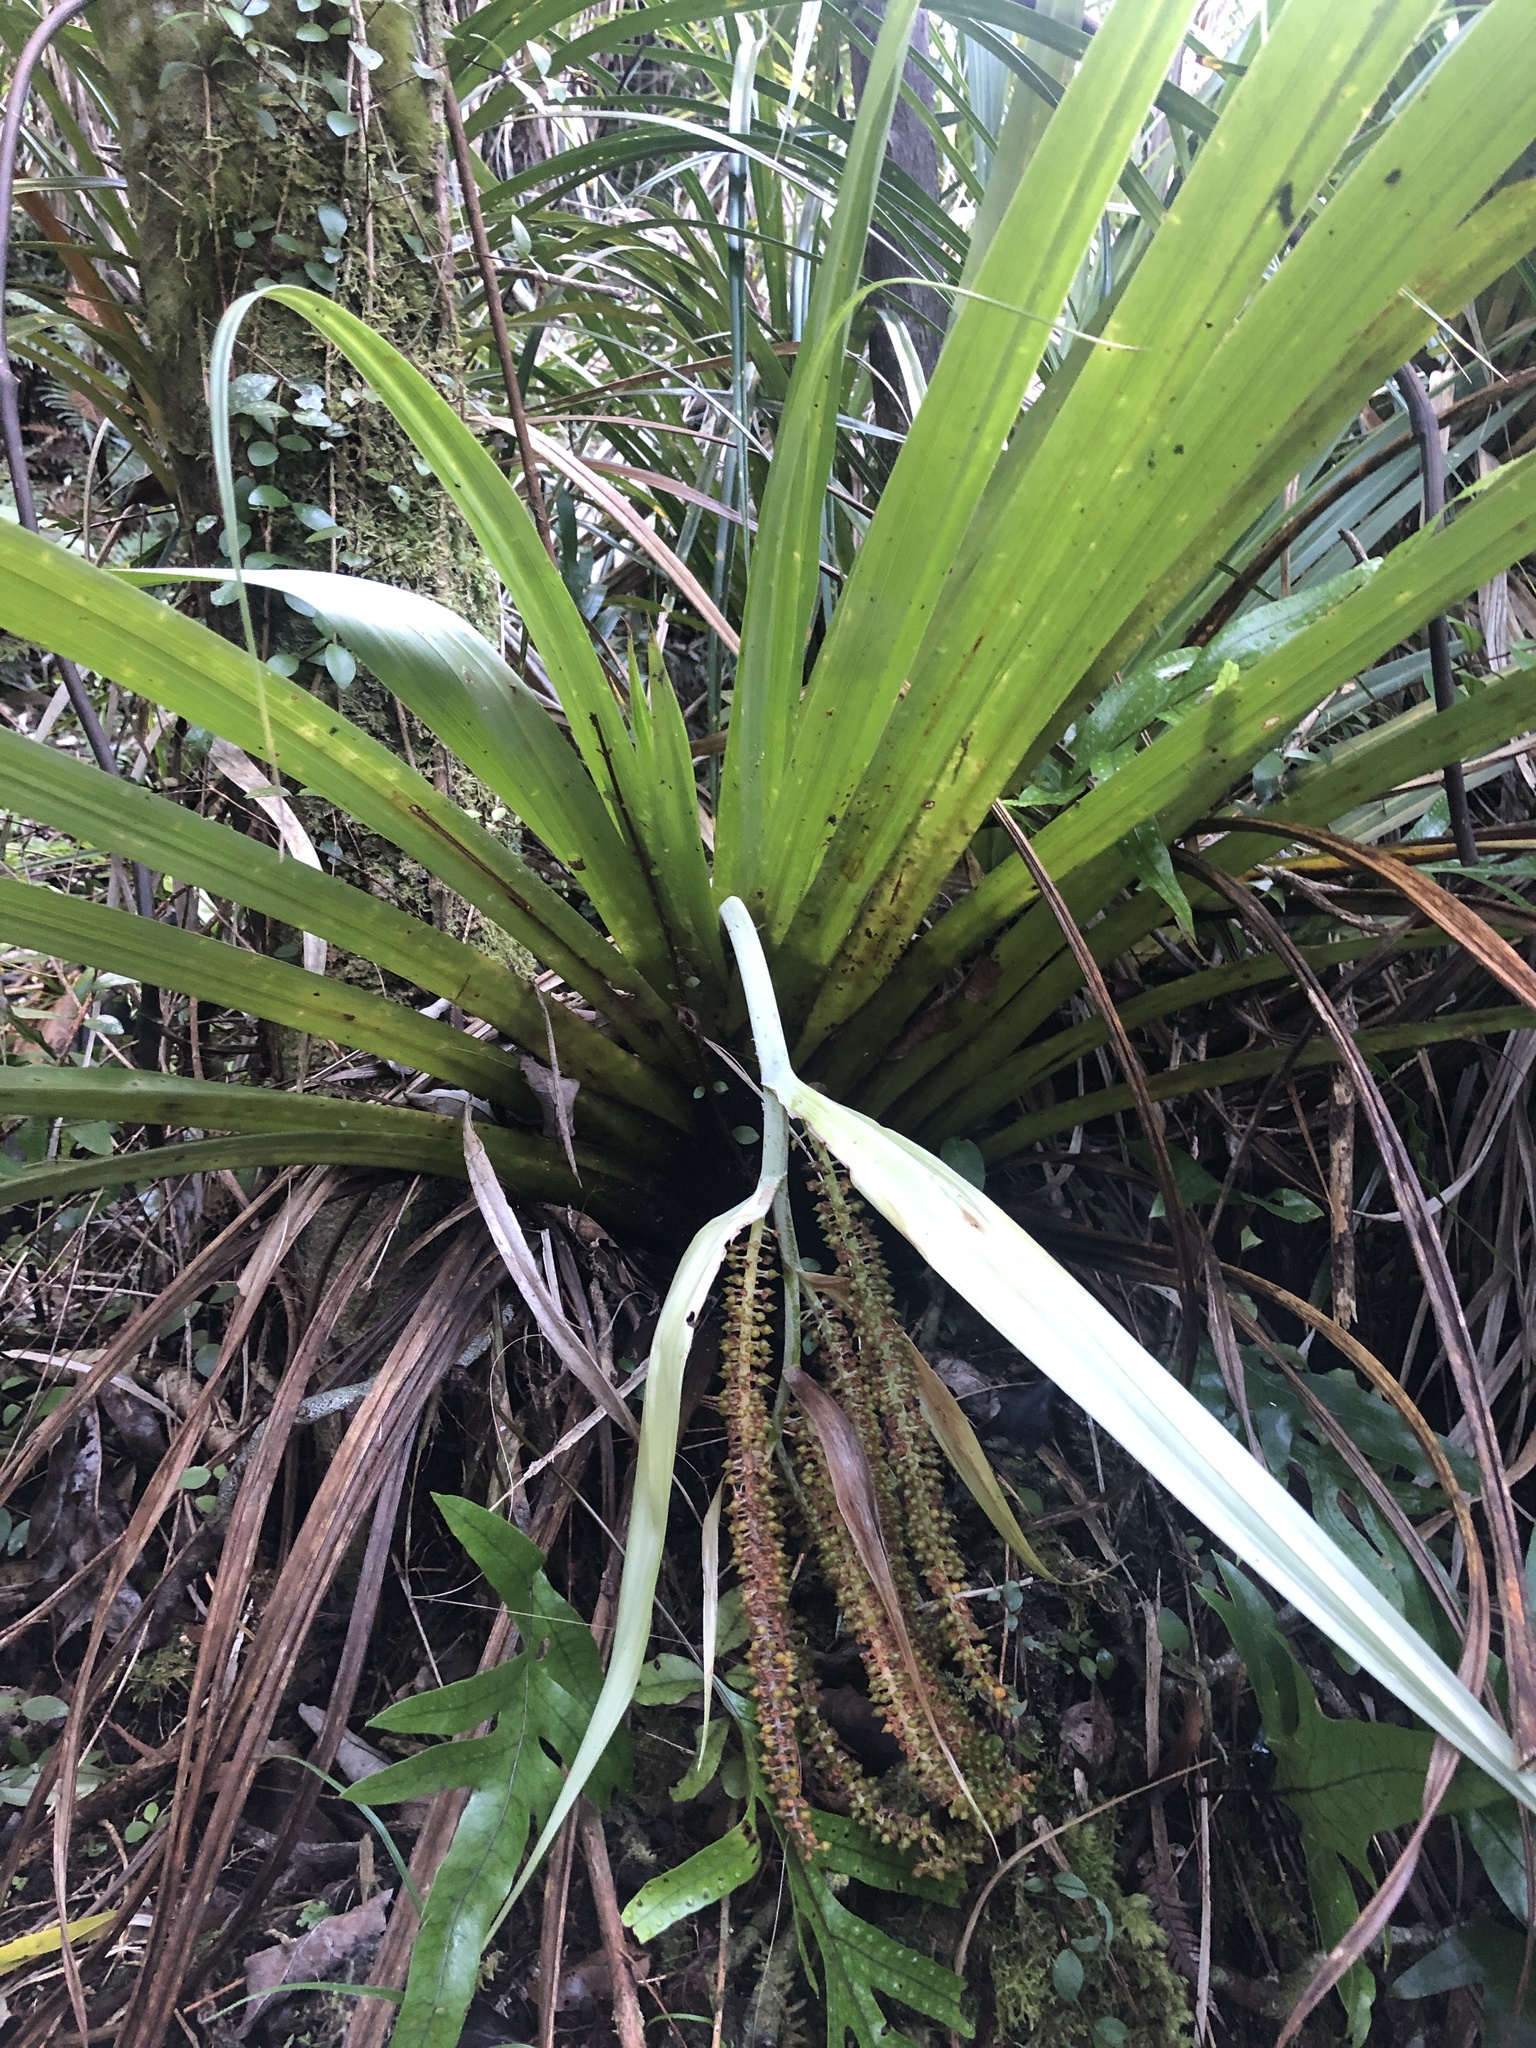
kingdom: Plantae
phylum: Tracheophyta
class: Liliopsida
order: Asparagales
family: Asteliaceae
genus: Astelia
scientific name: Astelia hastata
